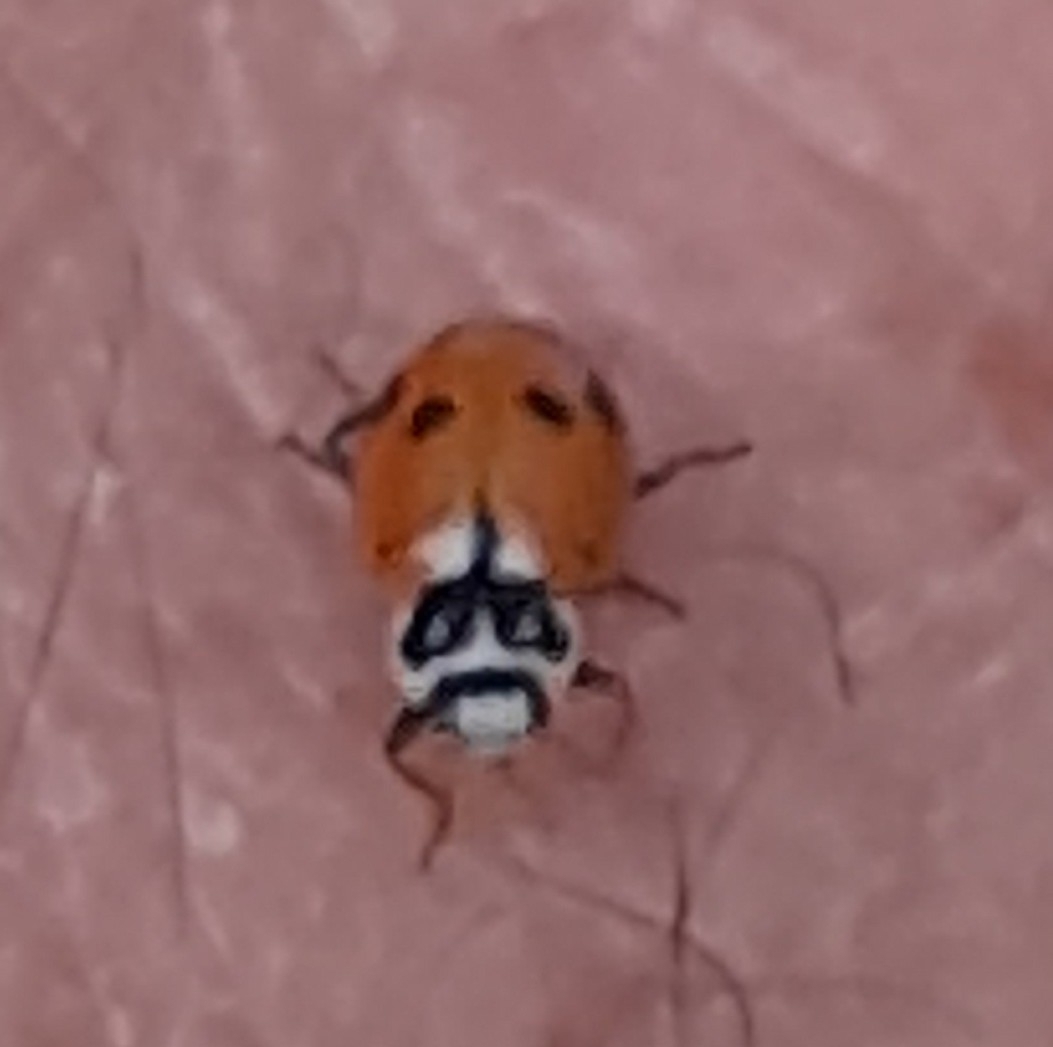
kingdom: Animalia
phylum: Arthropoda
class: Insecta
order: Coleoptera
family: Coccinellidae
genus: Hippodamia
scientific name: Hippodamia variegata
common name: Ladybird beetle
